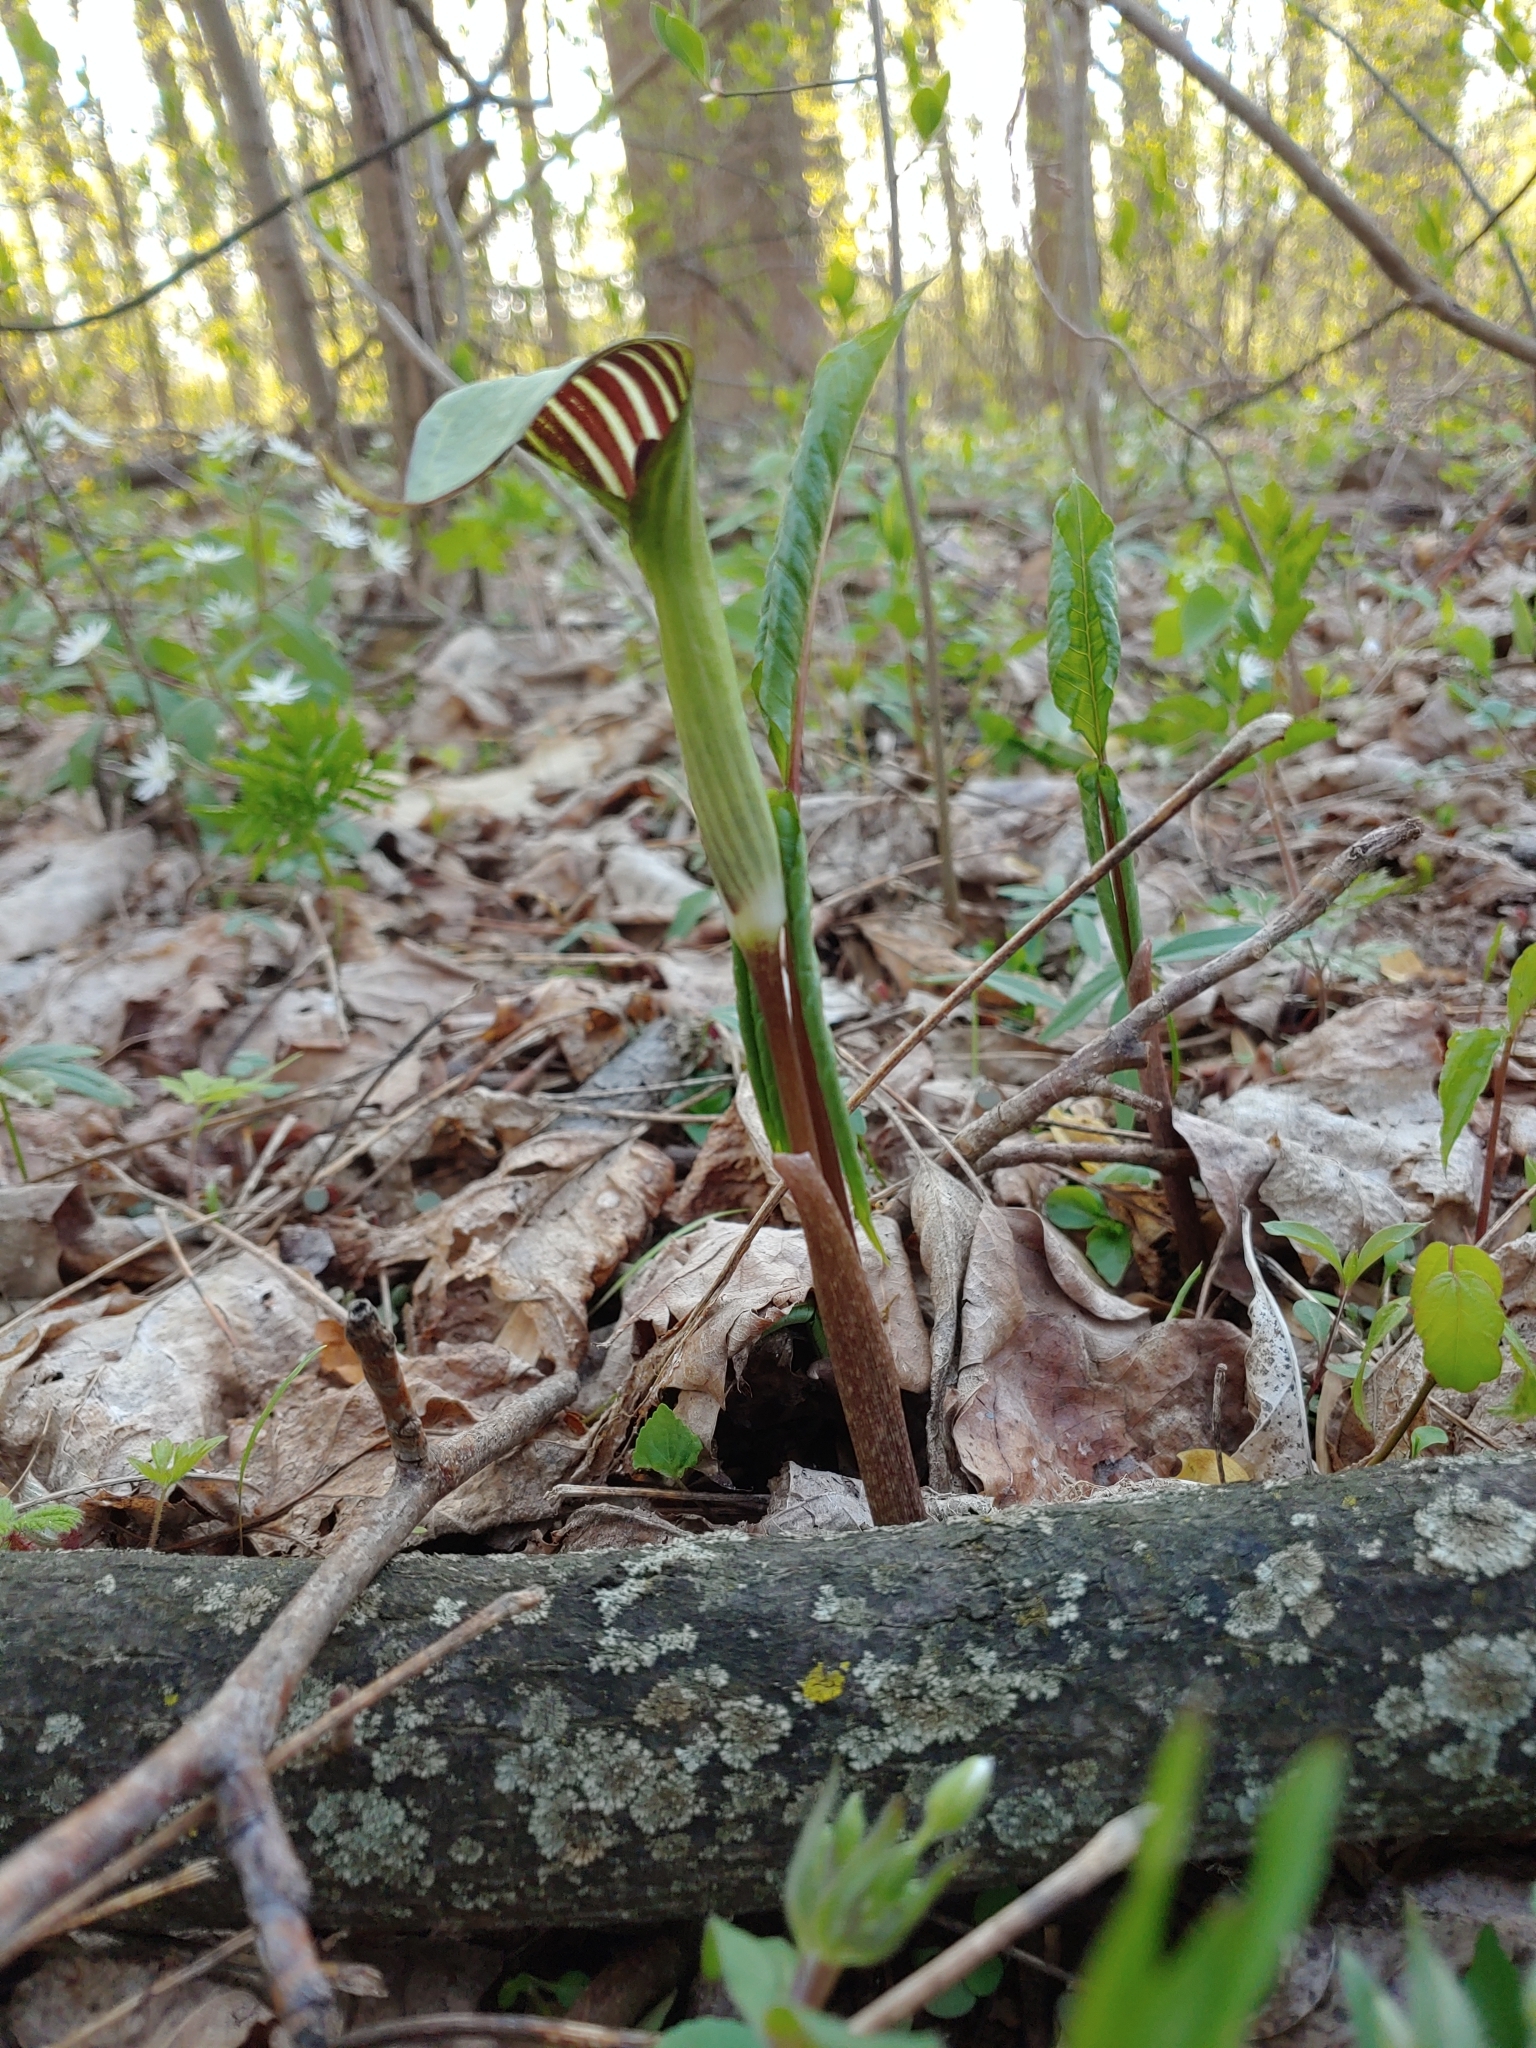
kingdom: Plantae
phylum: Tracheophyta
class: Liliopsida
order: Alismatales
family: Araceae
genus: Arisaema
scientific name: Arisaema triphyllum
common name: Jack-in-the-pulpit
